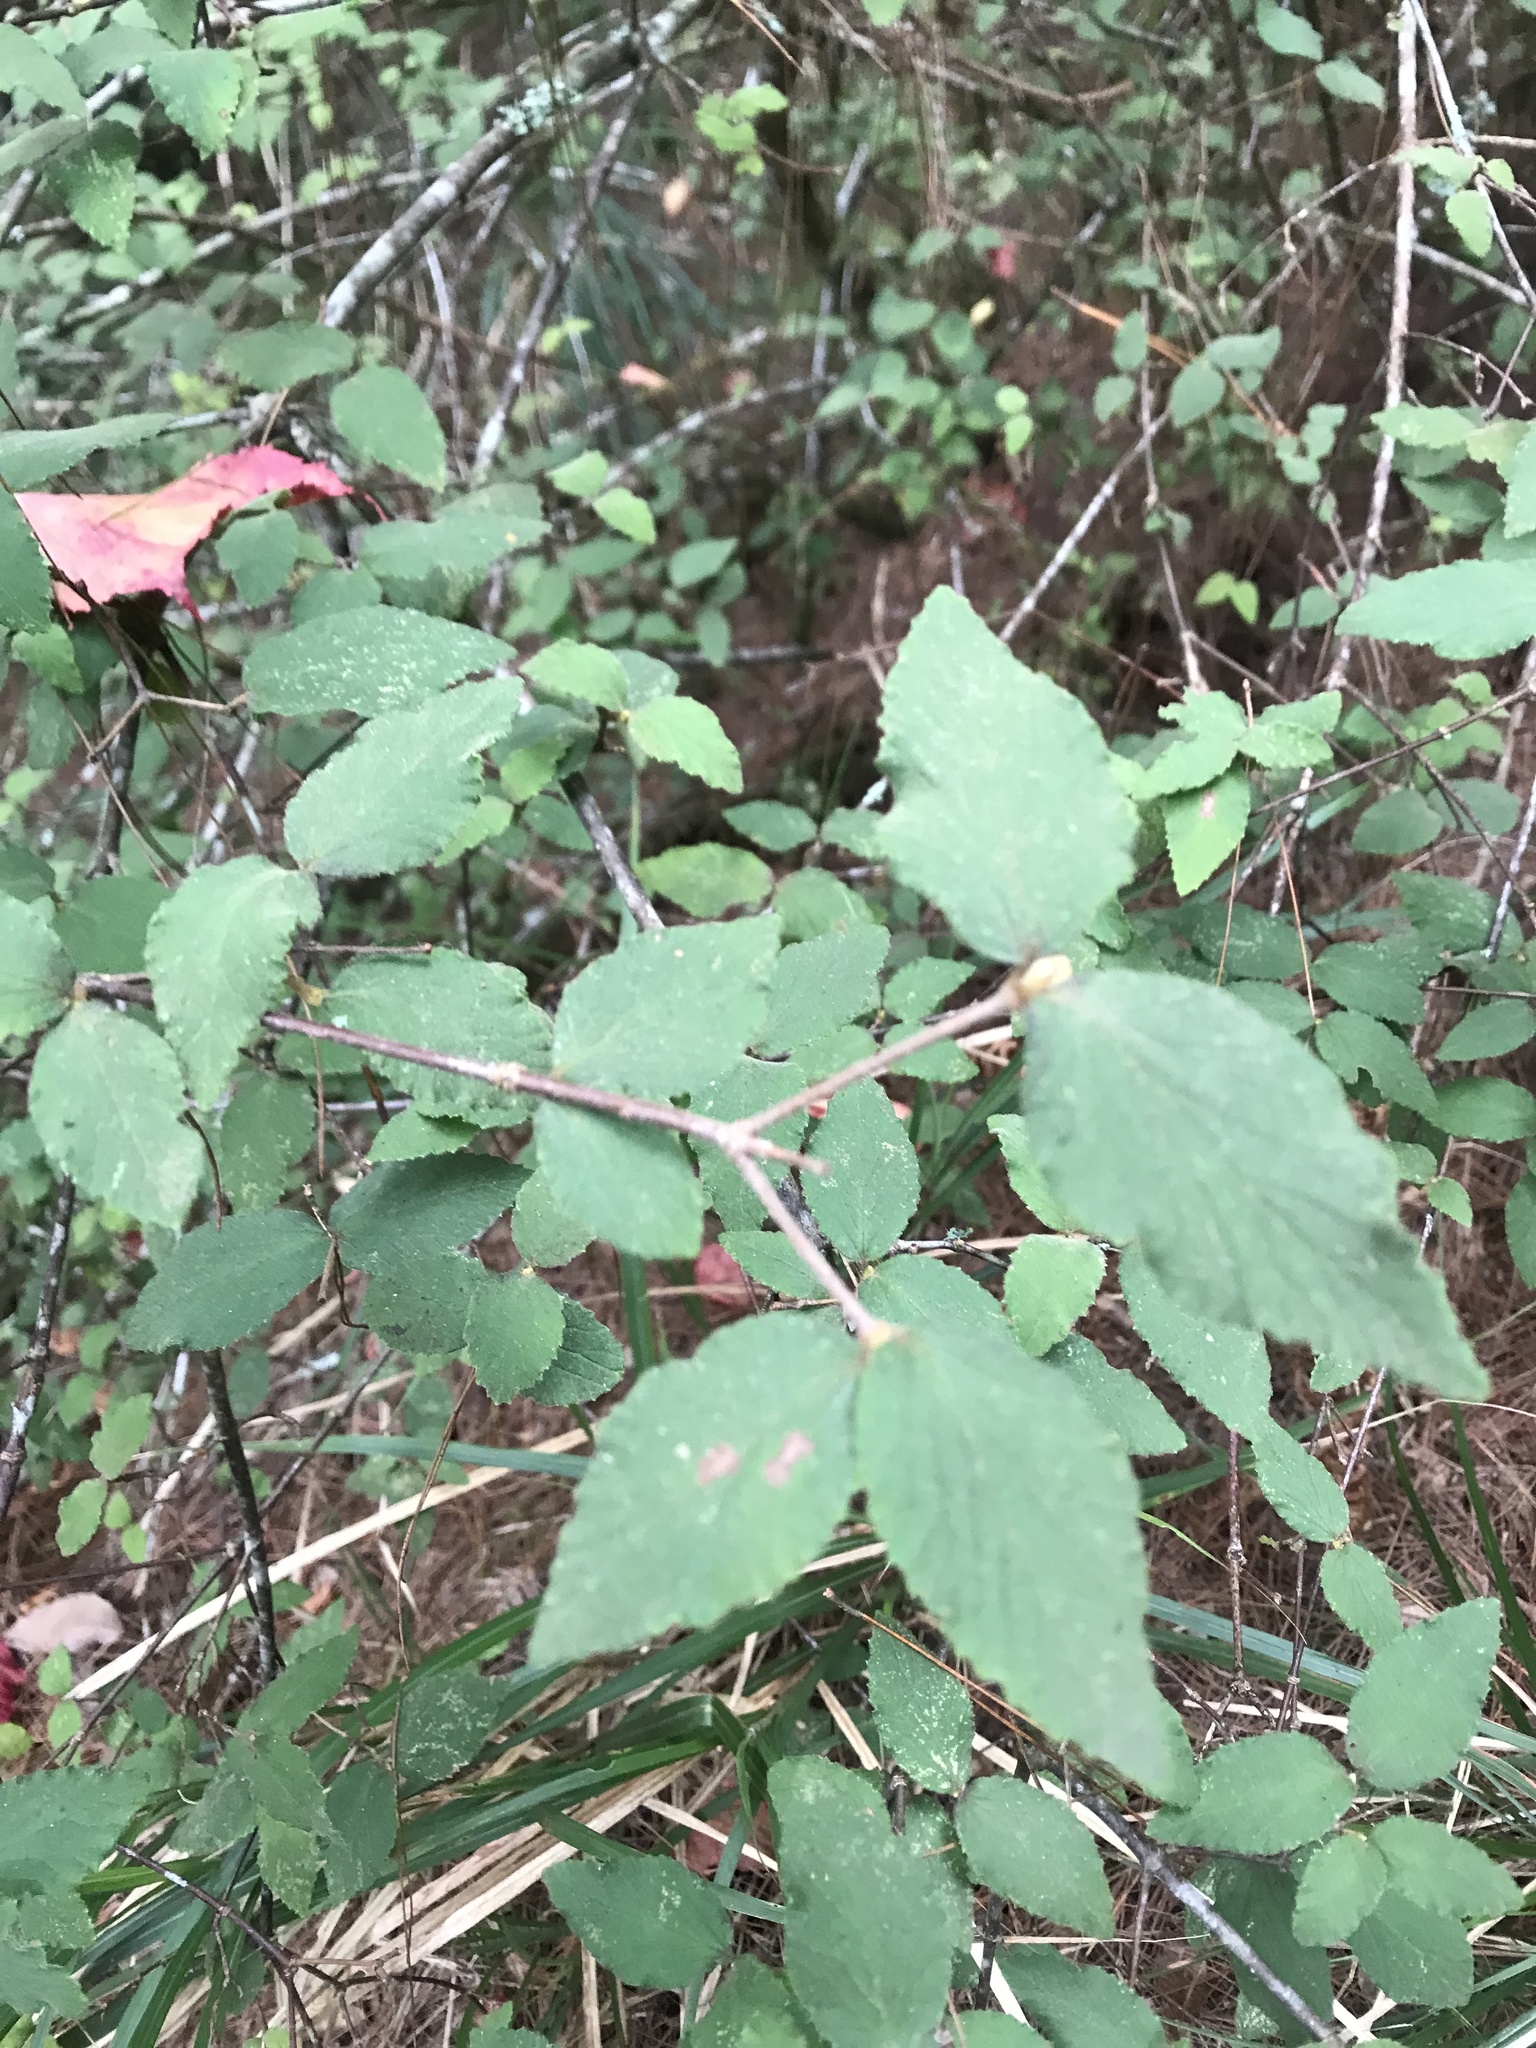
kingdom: Plantae
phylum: Tracheophyta
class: Magnoliopsida
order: Dipsacales
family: Viburnaceae
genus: Viburnum
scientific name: Viburnum luzonicum
